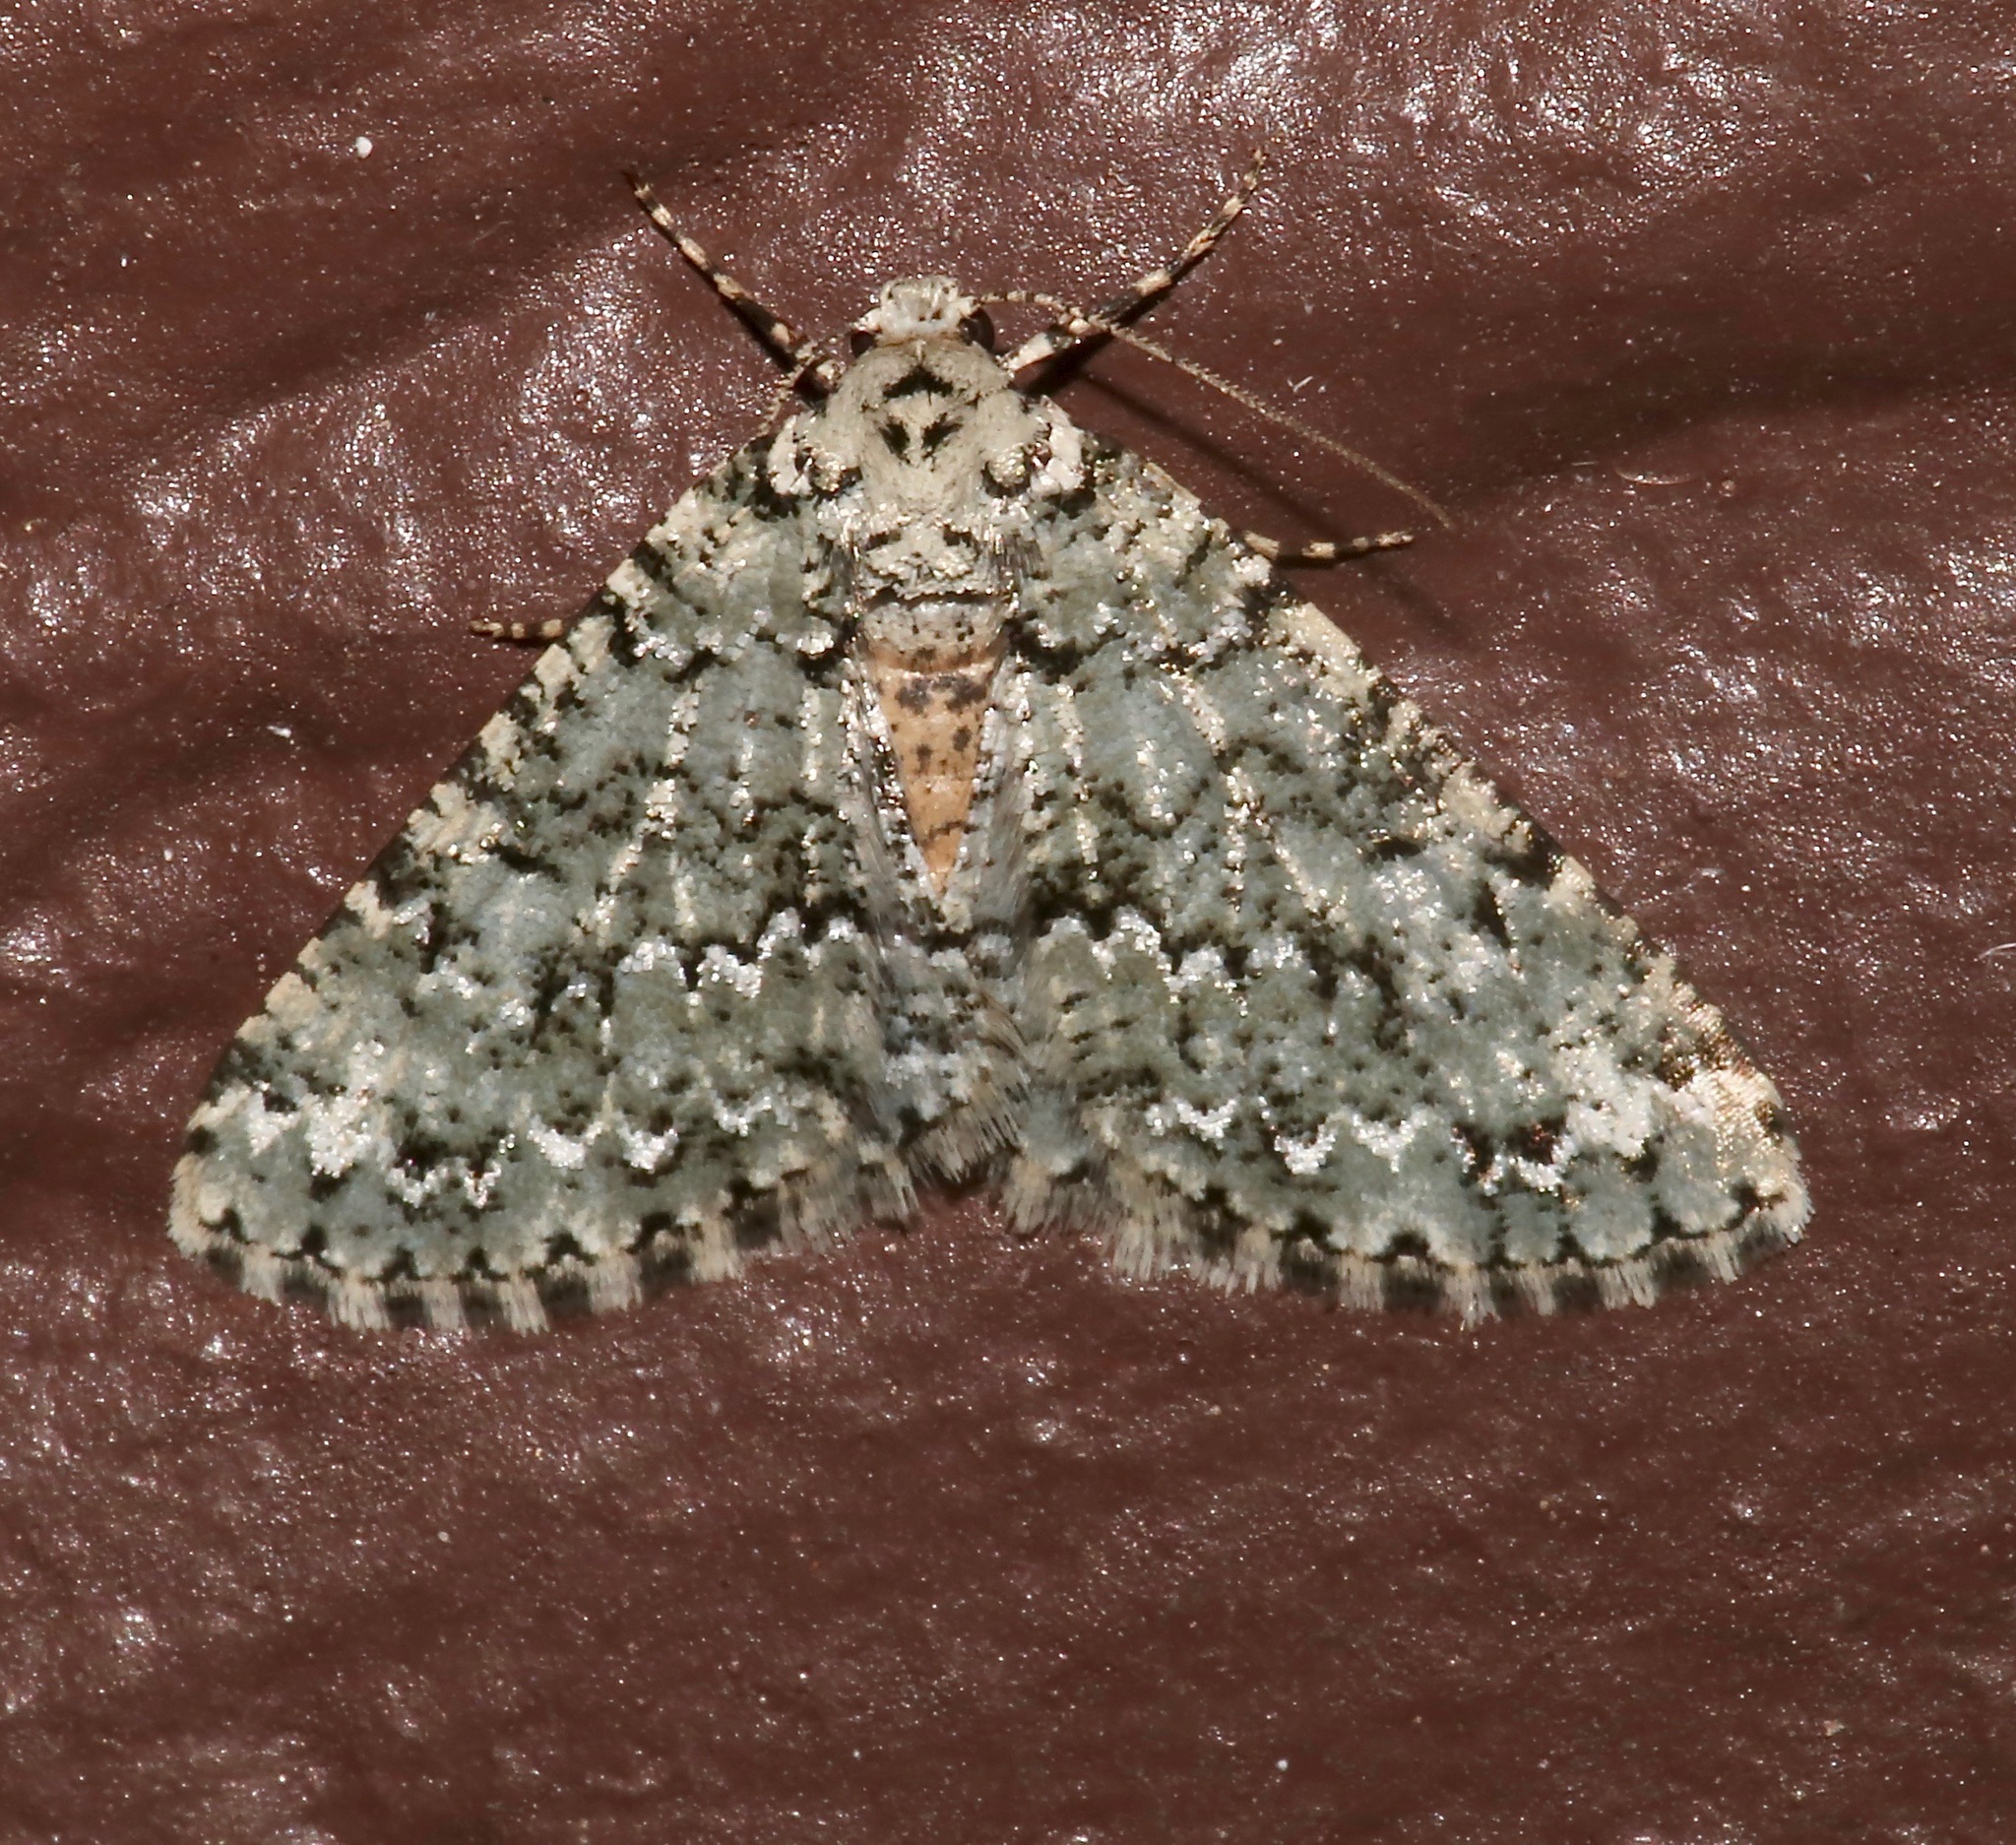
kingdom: Animalia
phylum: Arthropoda
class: Insecta
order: Lepidoptera
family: Geometridae
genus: Tracheops
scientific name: Tracheops bolteri
